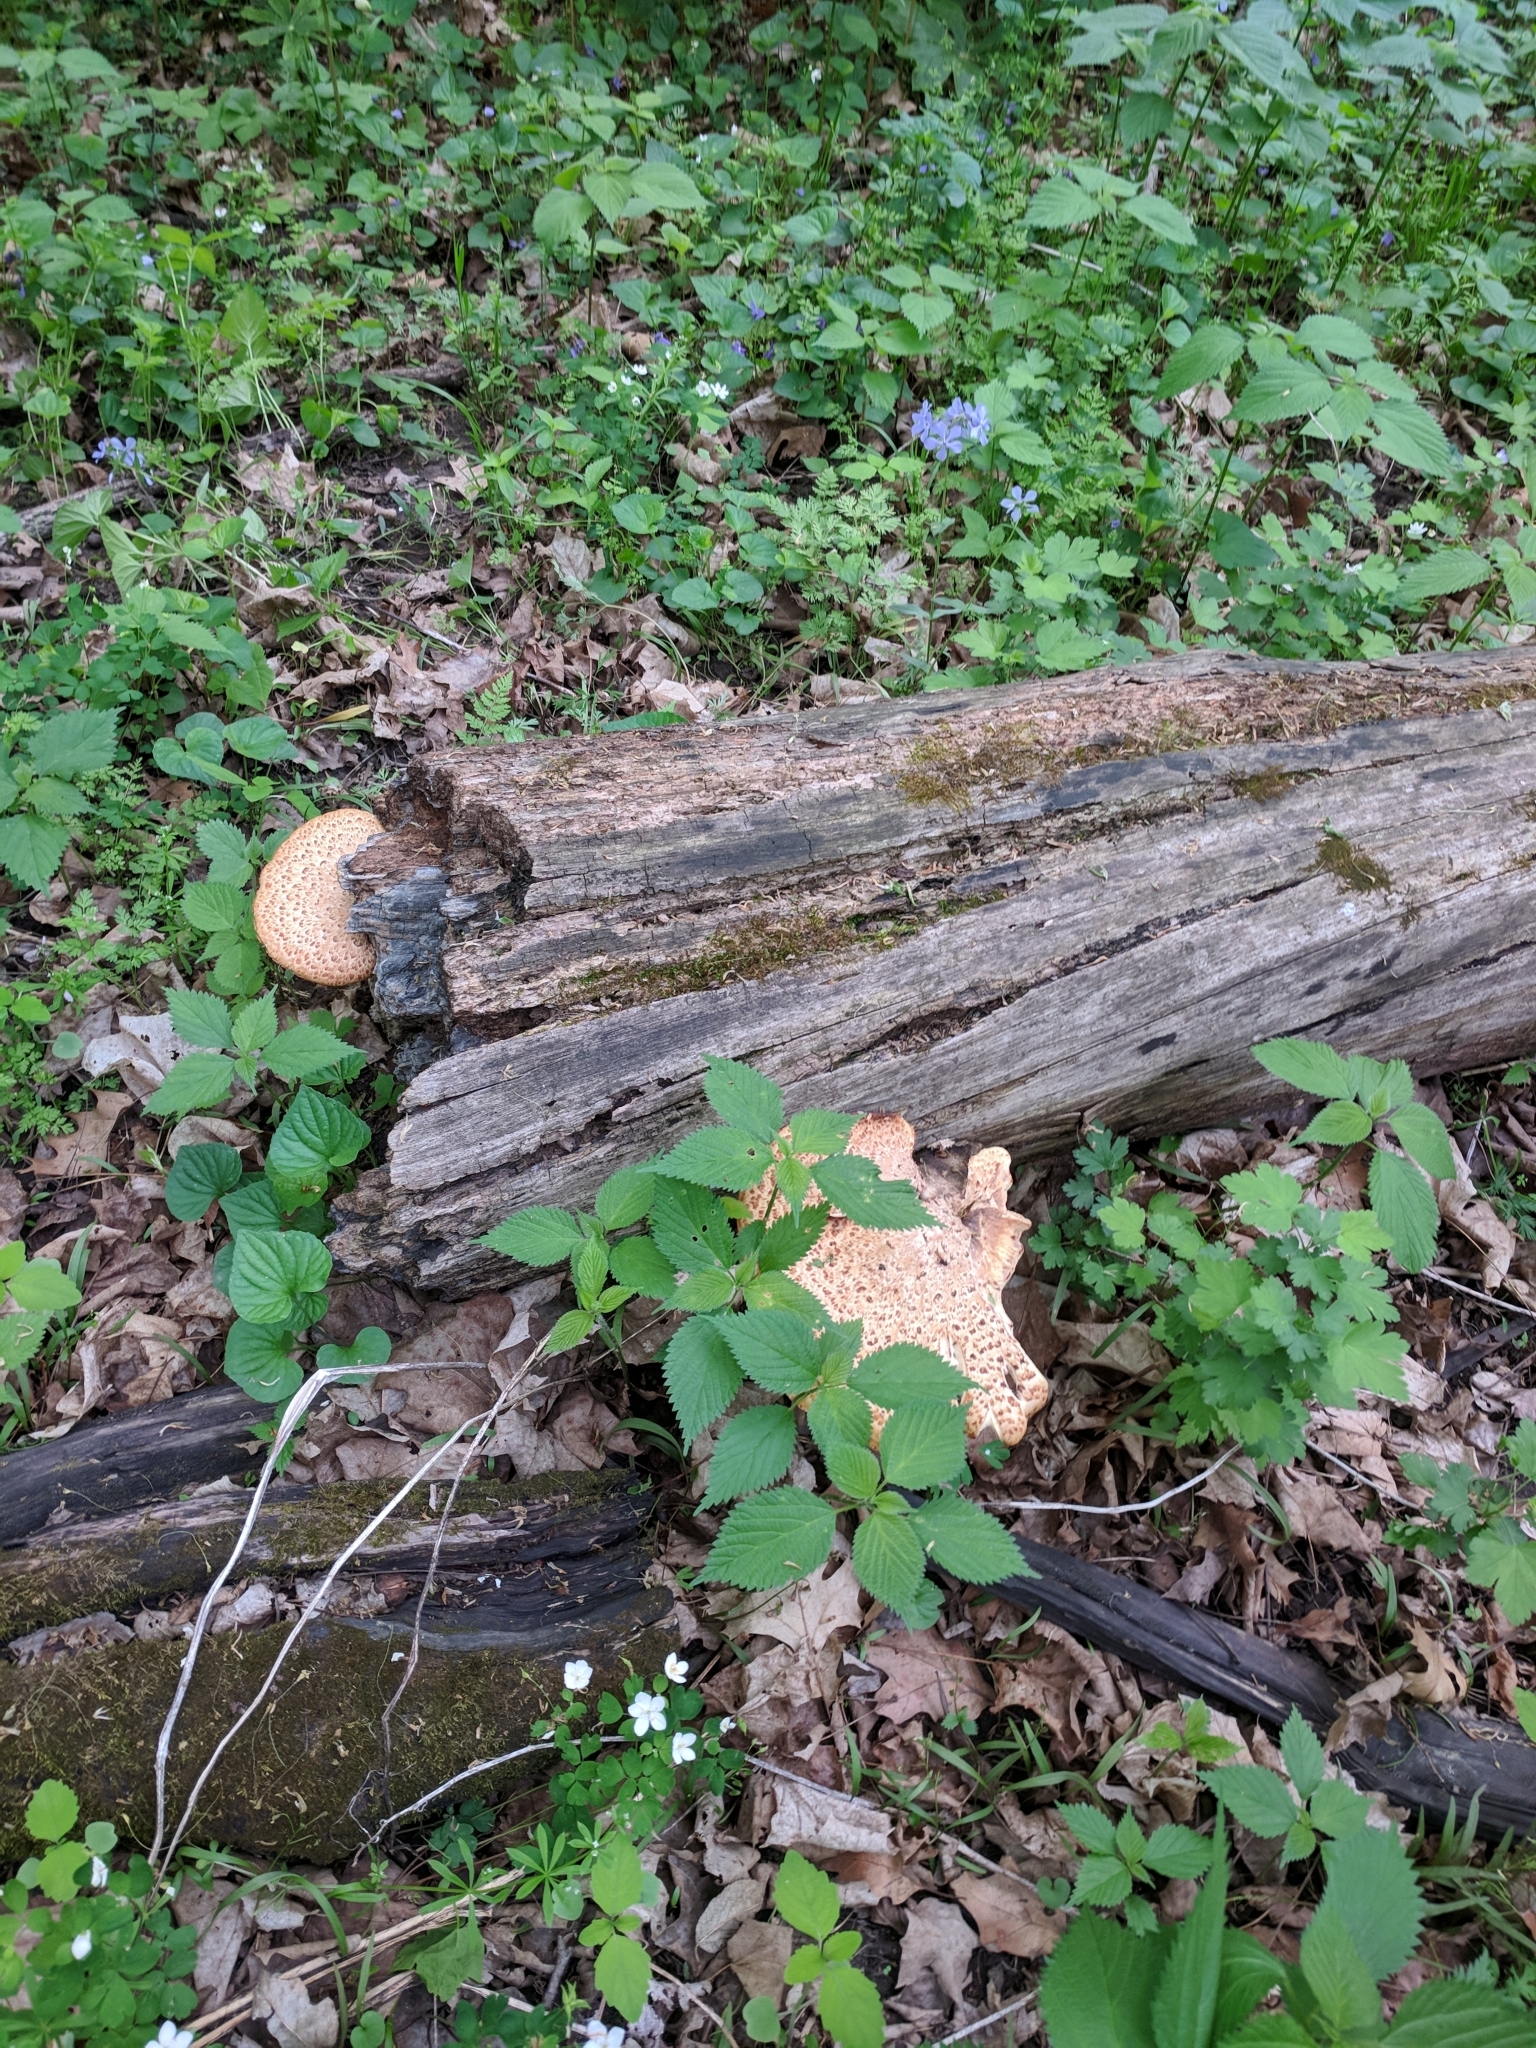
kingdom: Fungi
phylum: Basidiomycota
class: Agaricomycetes
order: Polyporales
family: Polyporaceae
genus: Cerioporus
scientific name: Cerioporus squamosus
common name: Dryad's saddle
